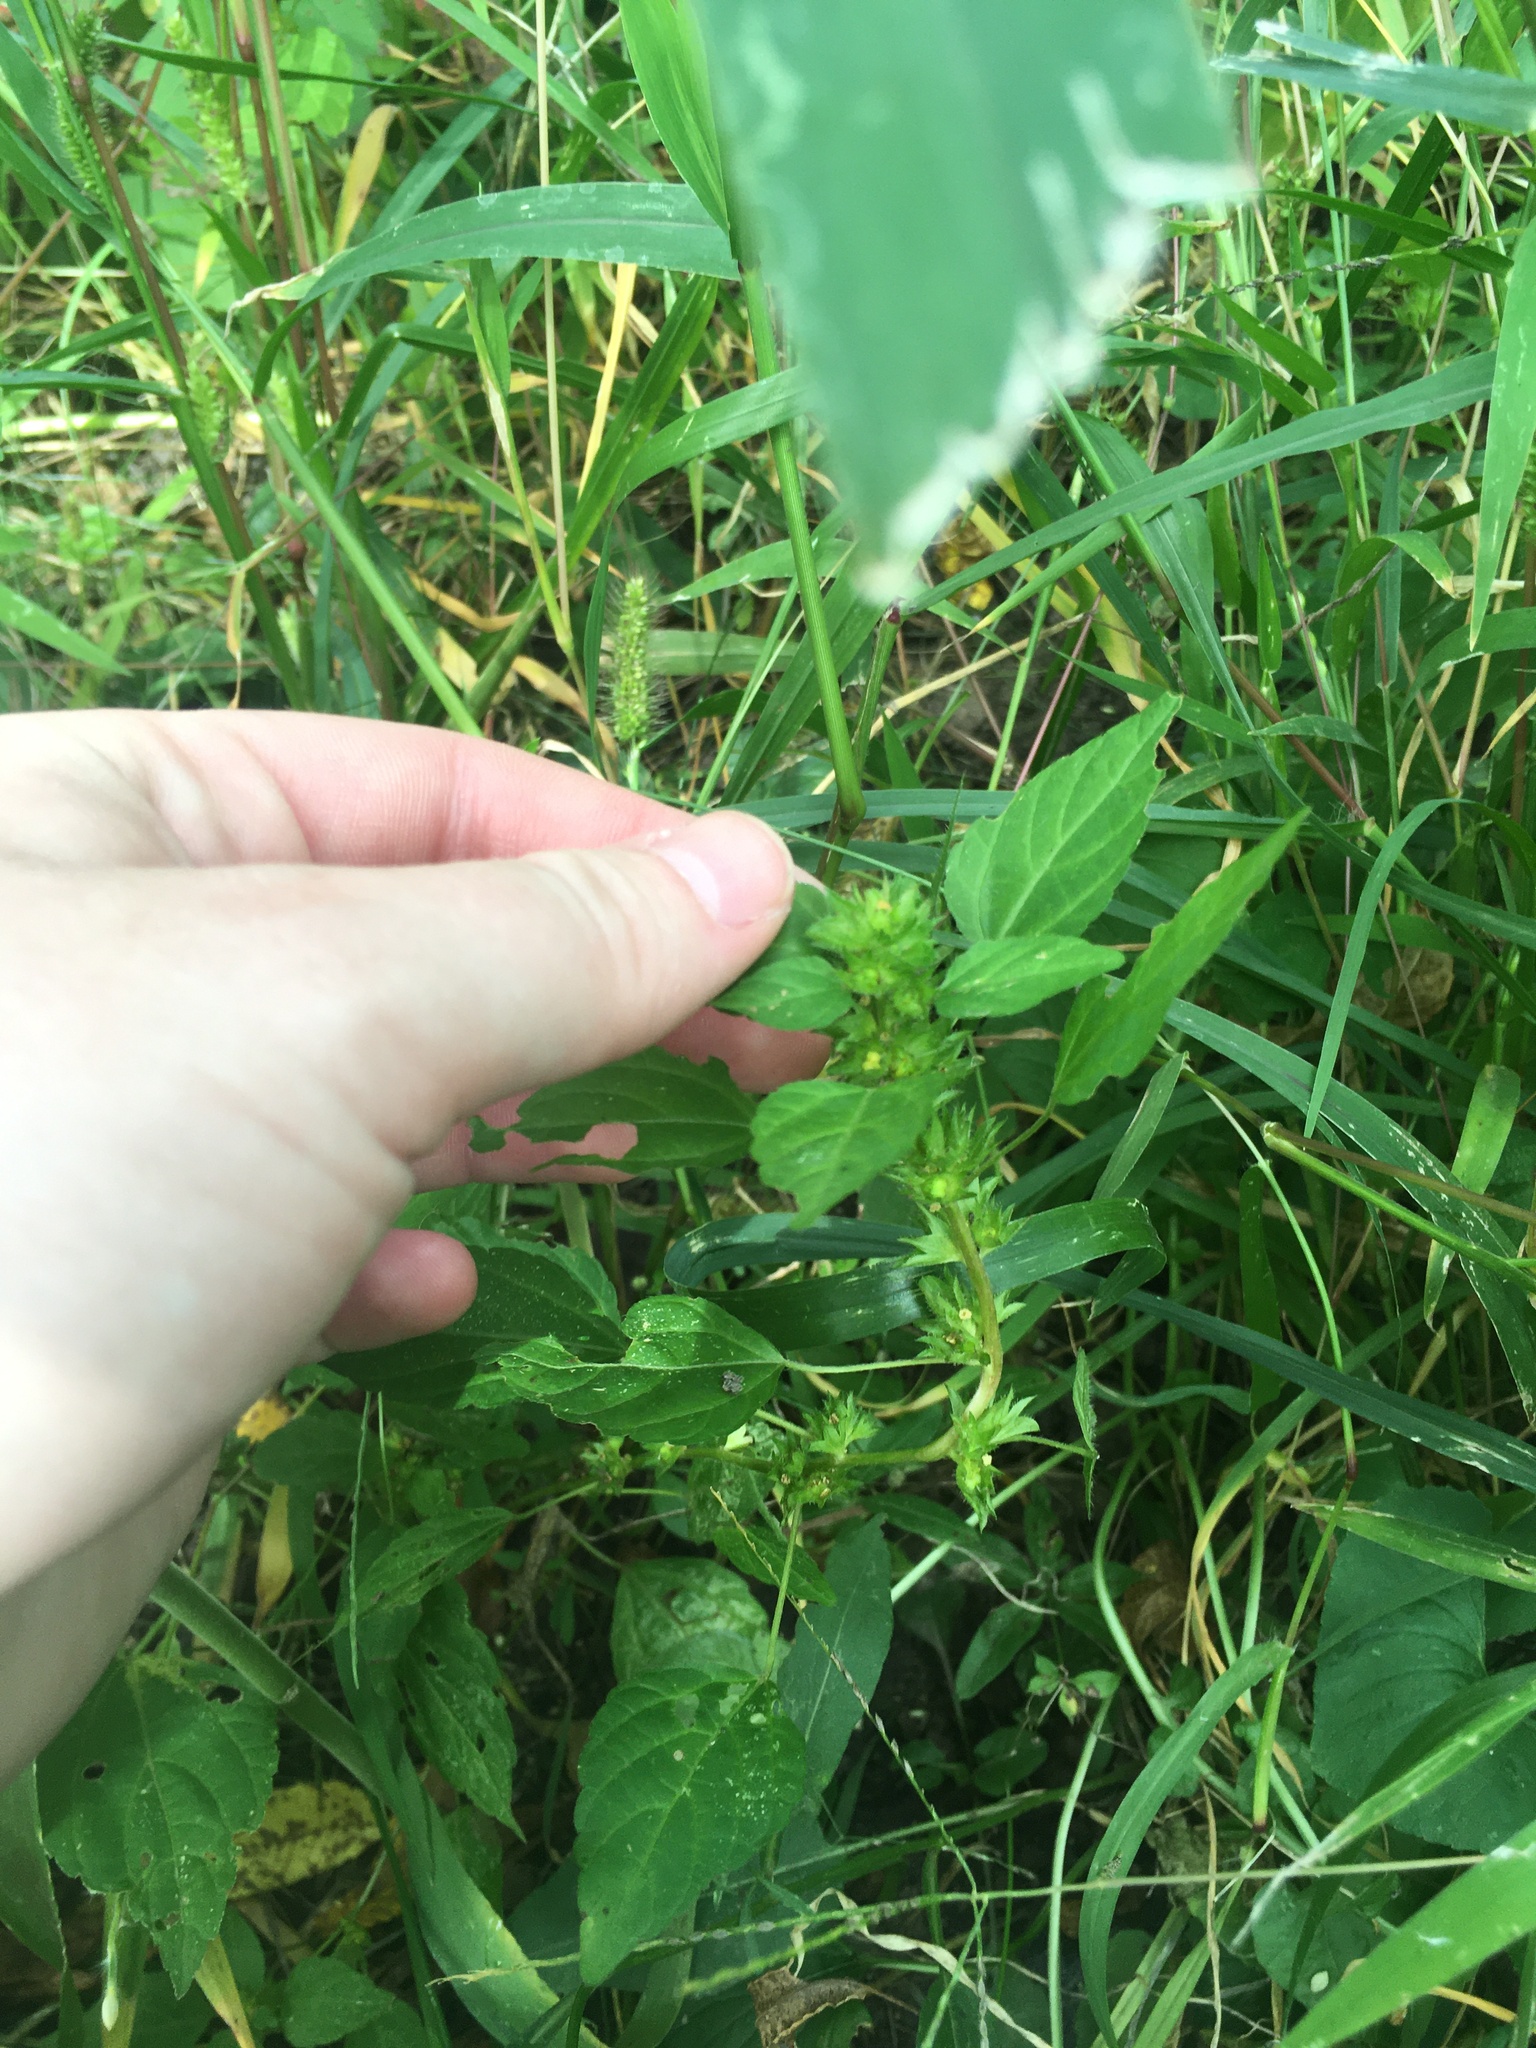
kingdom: Plantae
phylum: Tracheophyta
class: Magnoliopsida
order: Malpighiales
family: Euphorbiaceae
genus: Acalypha
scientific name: Acalypha rhomboidea
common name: Rhombic copperleaf
